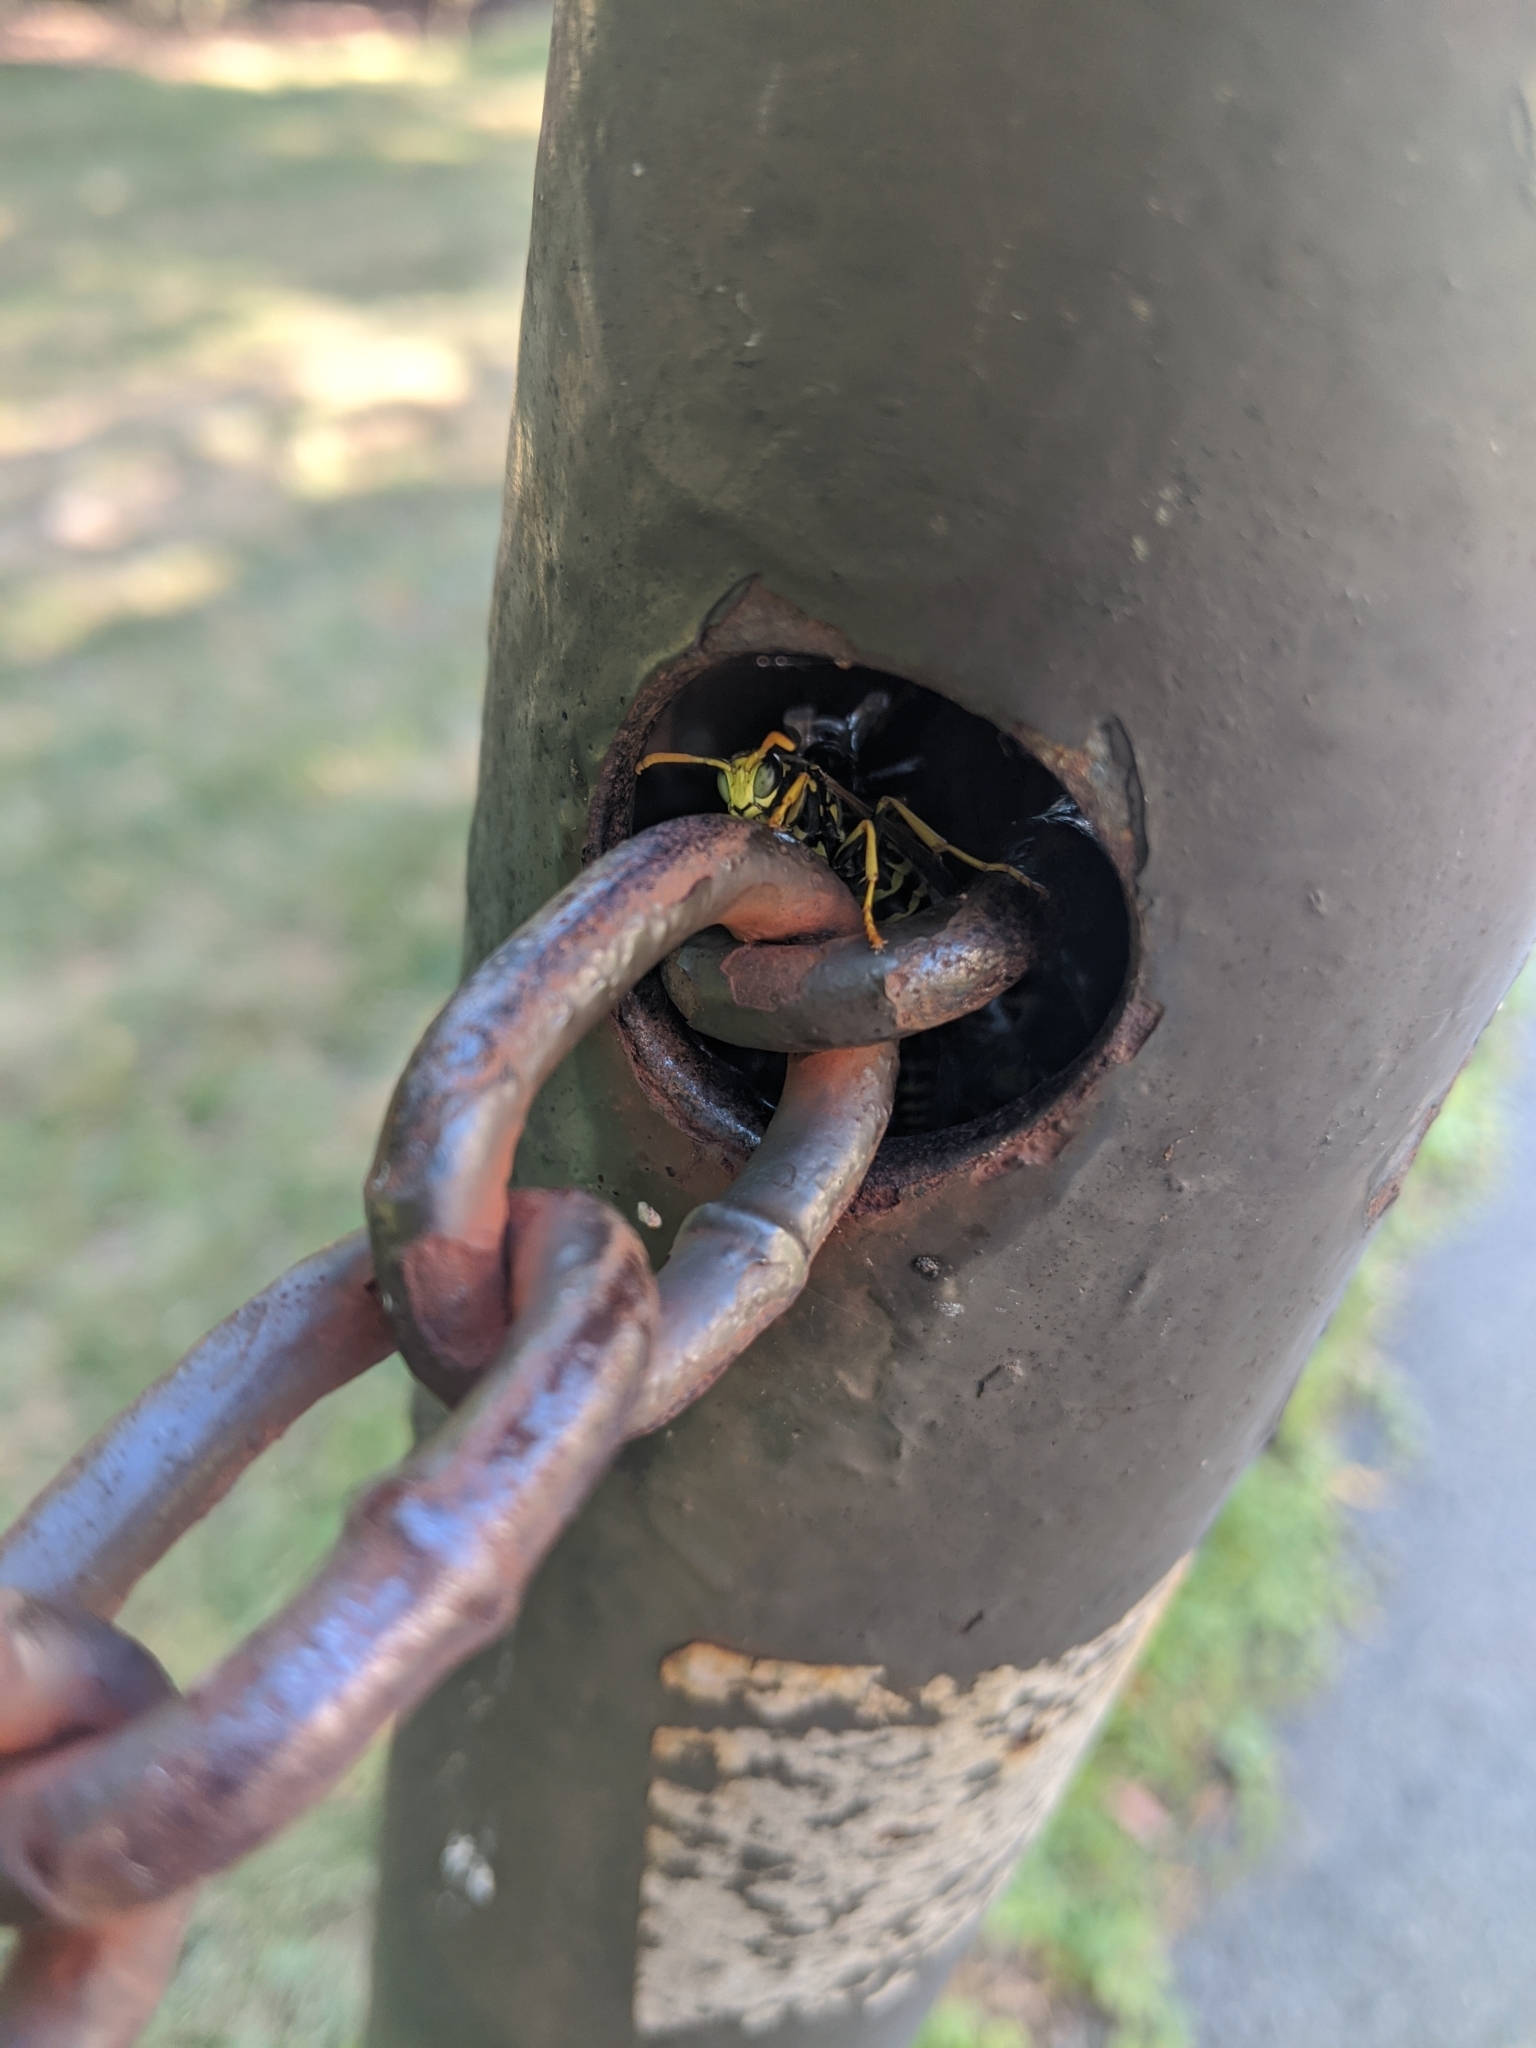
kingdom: Animalia
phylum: Arthropoda
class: Insecta
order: Hymenoptera
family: Eumenidae
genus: Polistes
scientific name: Polistes dominula
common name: Paper wasp
